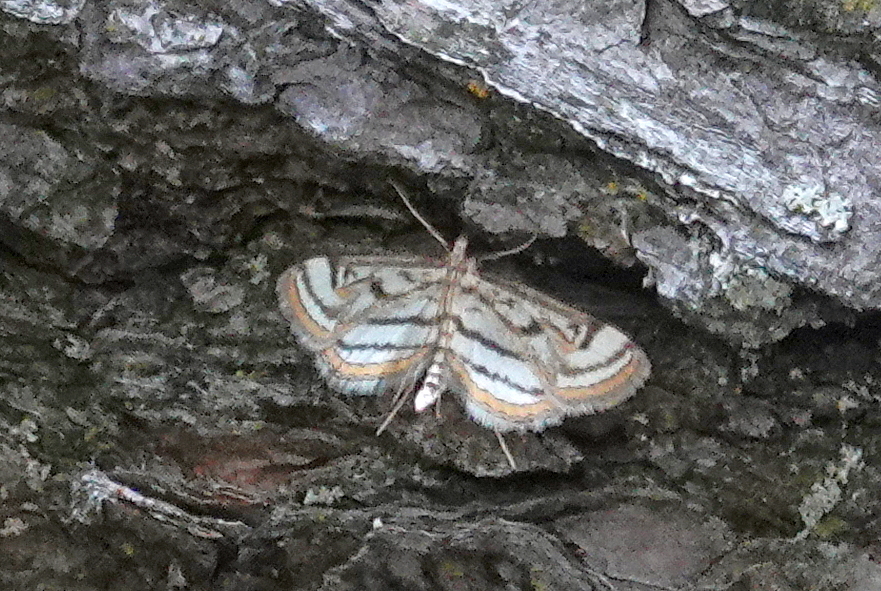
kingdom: Animalia
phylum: Arthropoda
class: Insecta
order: Lepidoptera
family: Crambidae
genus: Parapoynx
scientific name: Parapoynx badiusalis
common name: Chestnut-marked pondweed moth
